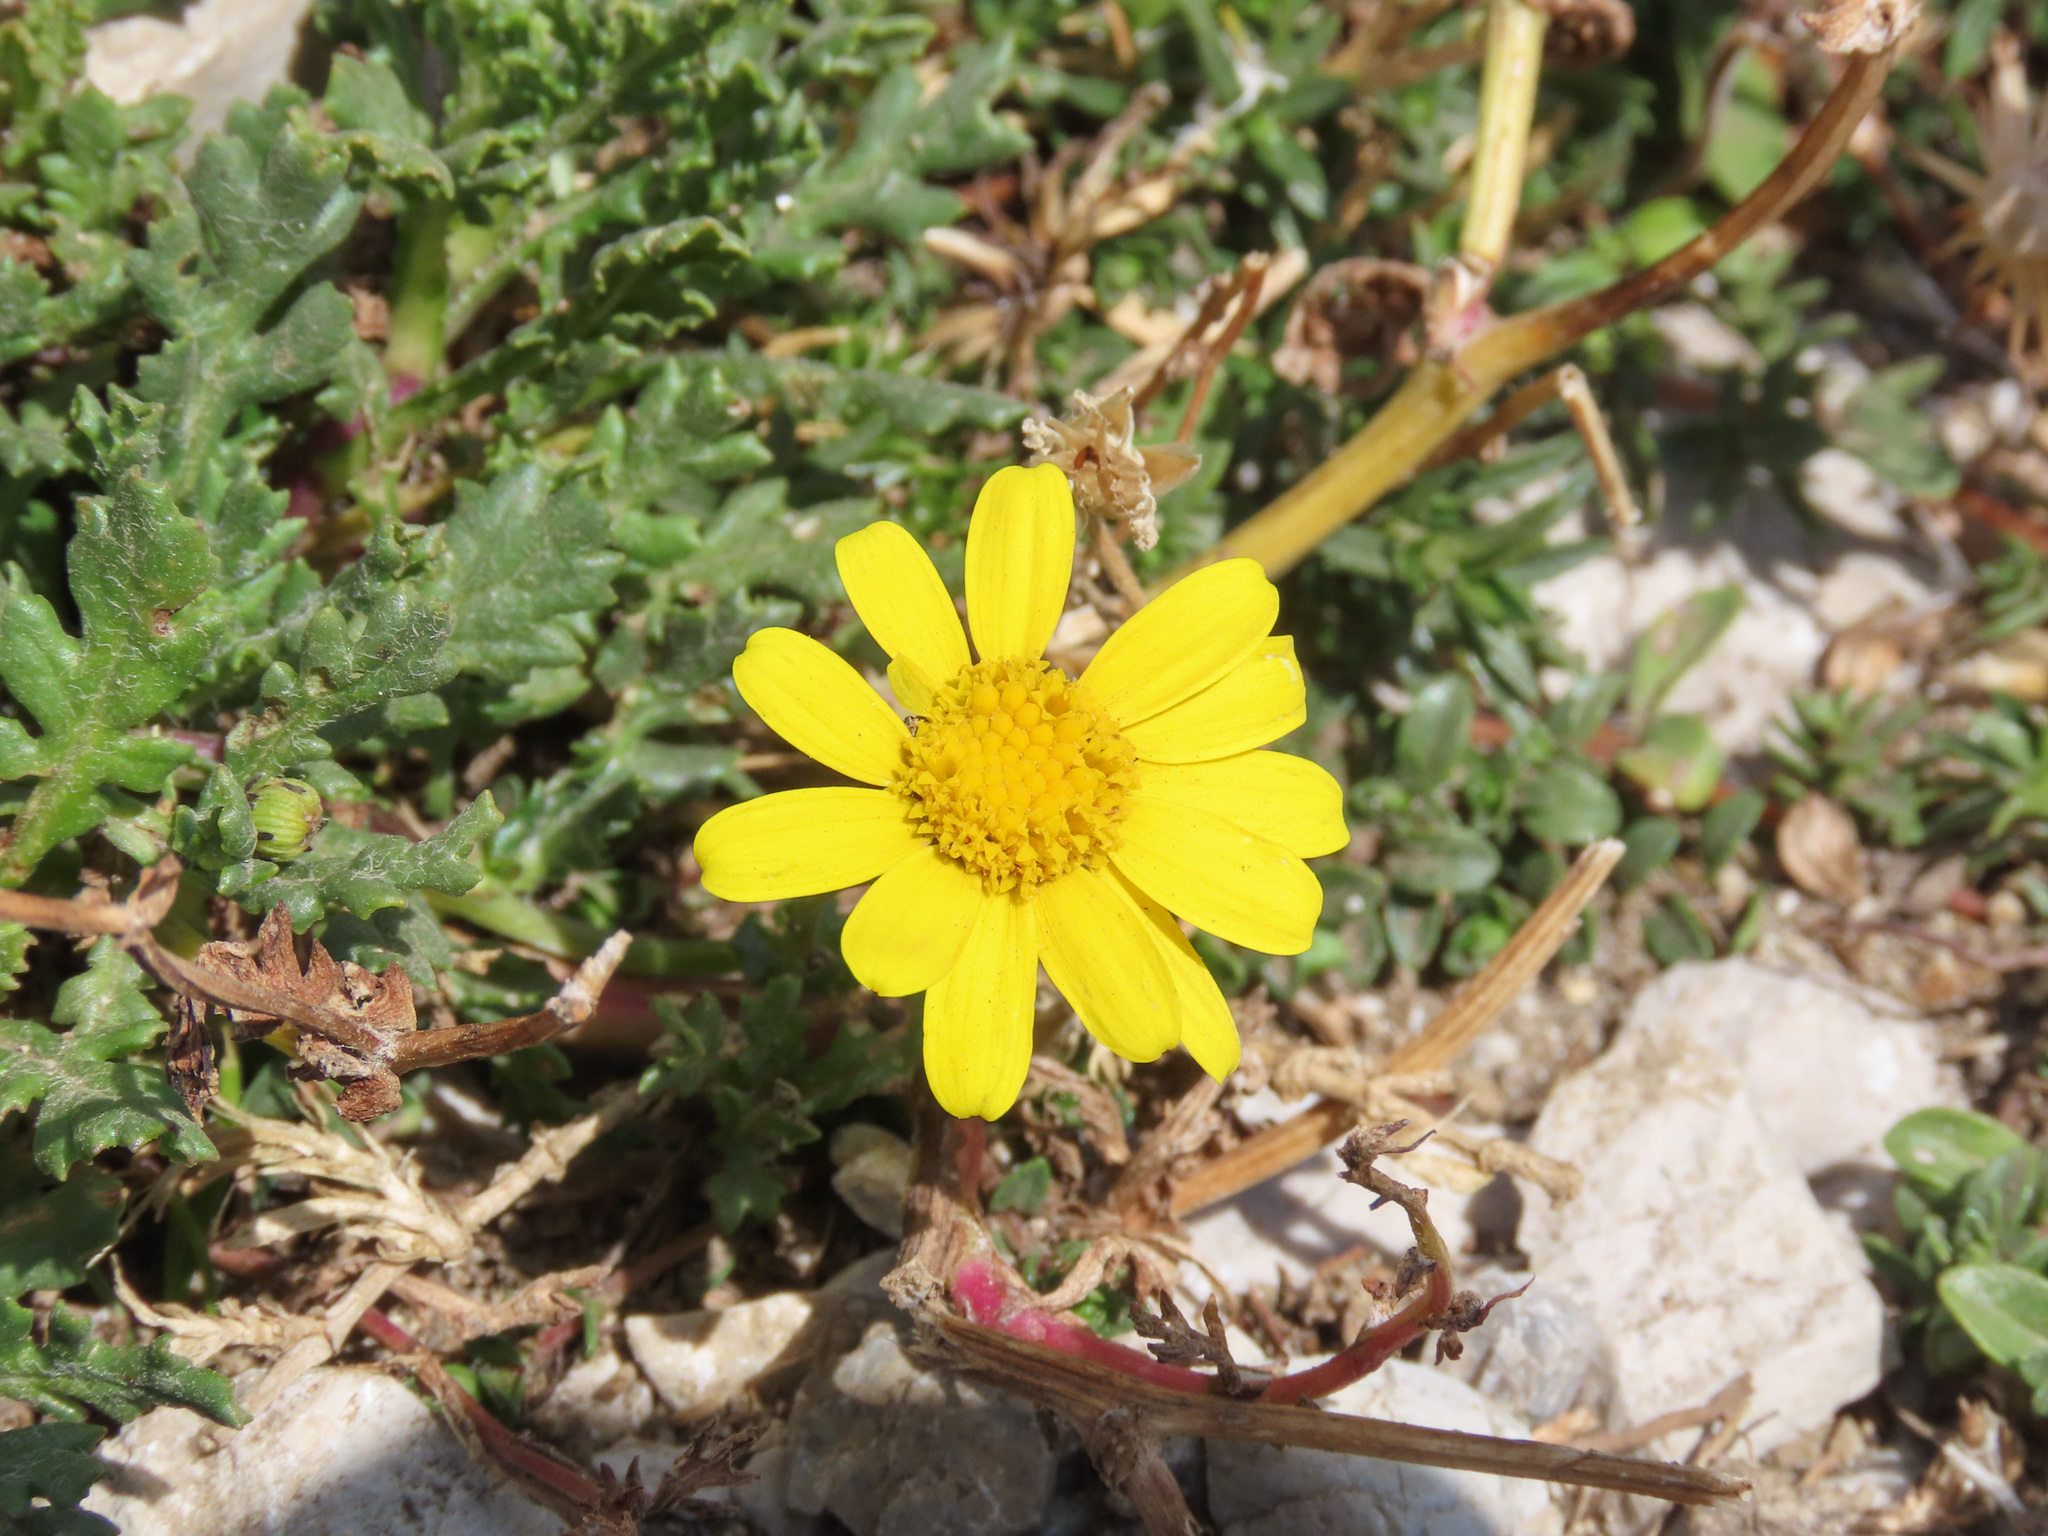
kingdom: Plantae
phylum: Tracheophyta
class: Magnoliopsida
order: Asterales
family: Asteraceae
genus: Senecio
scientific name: Senecio rupestris
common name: Rock ragwort
